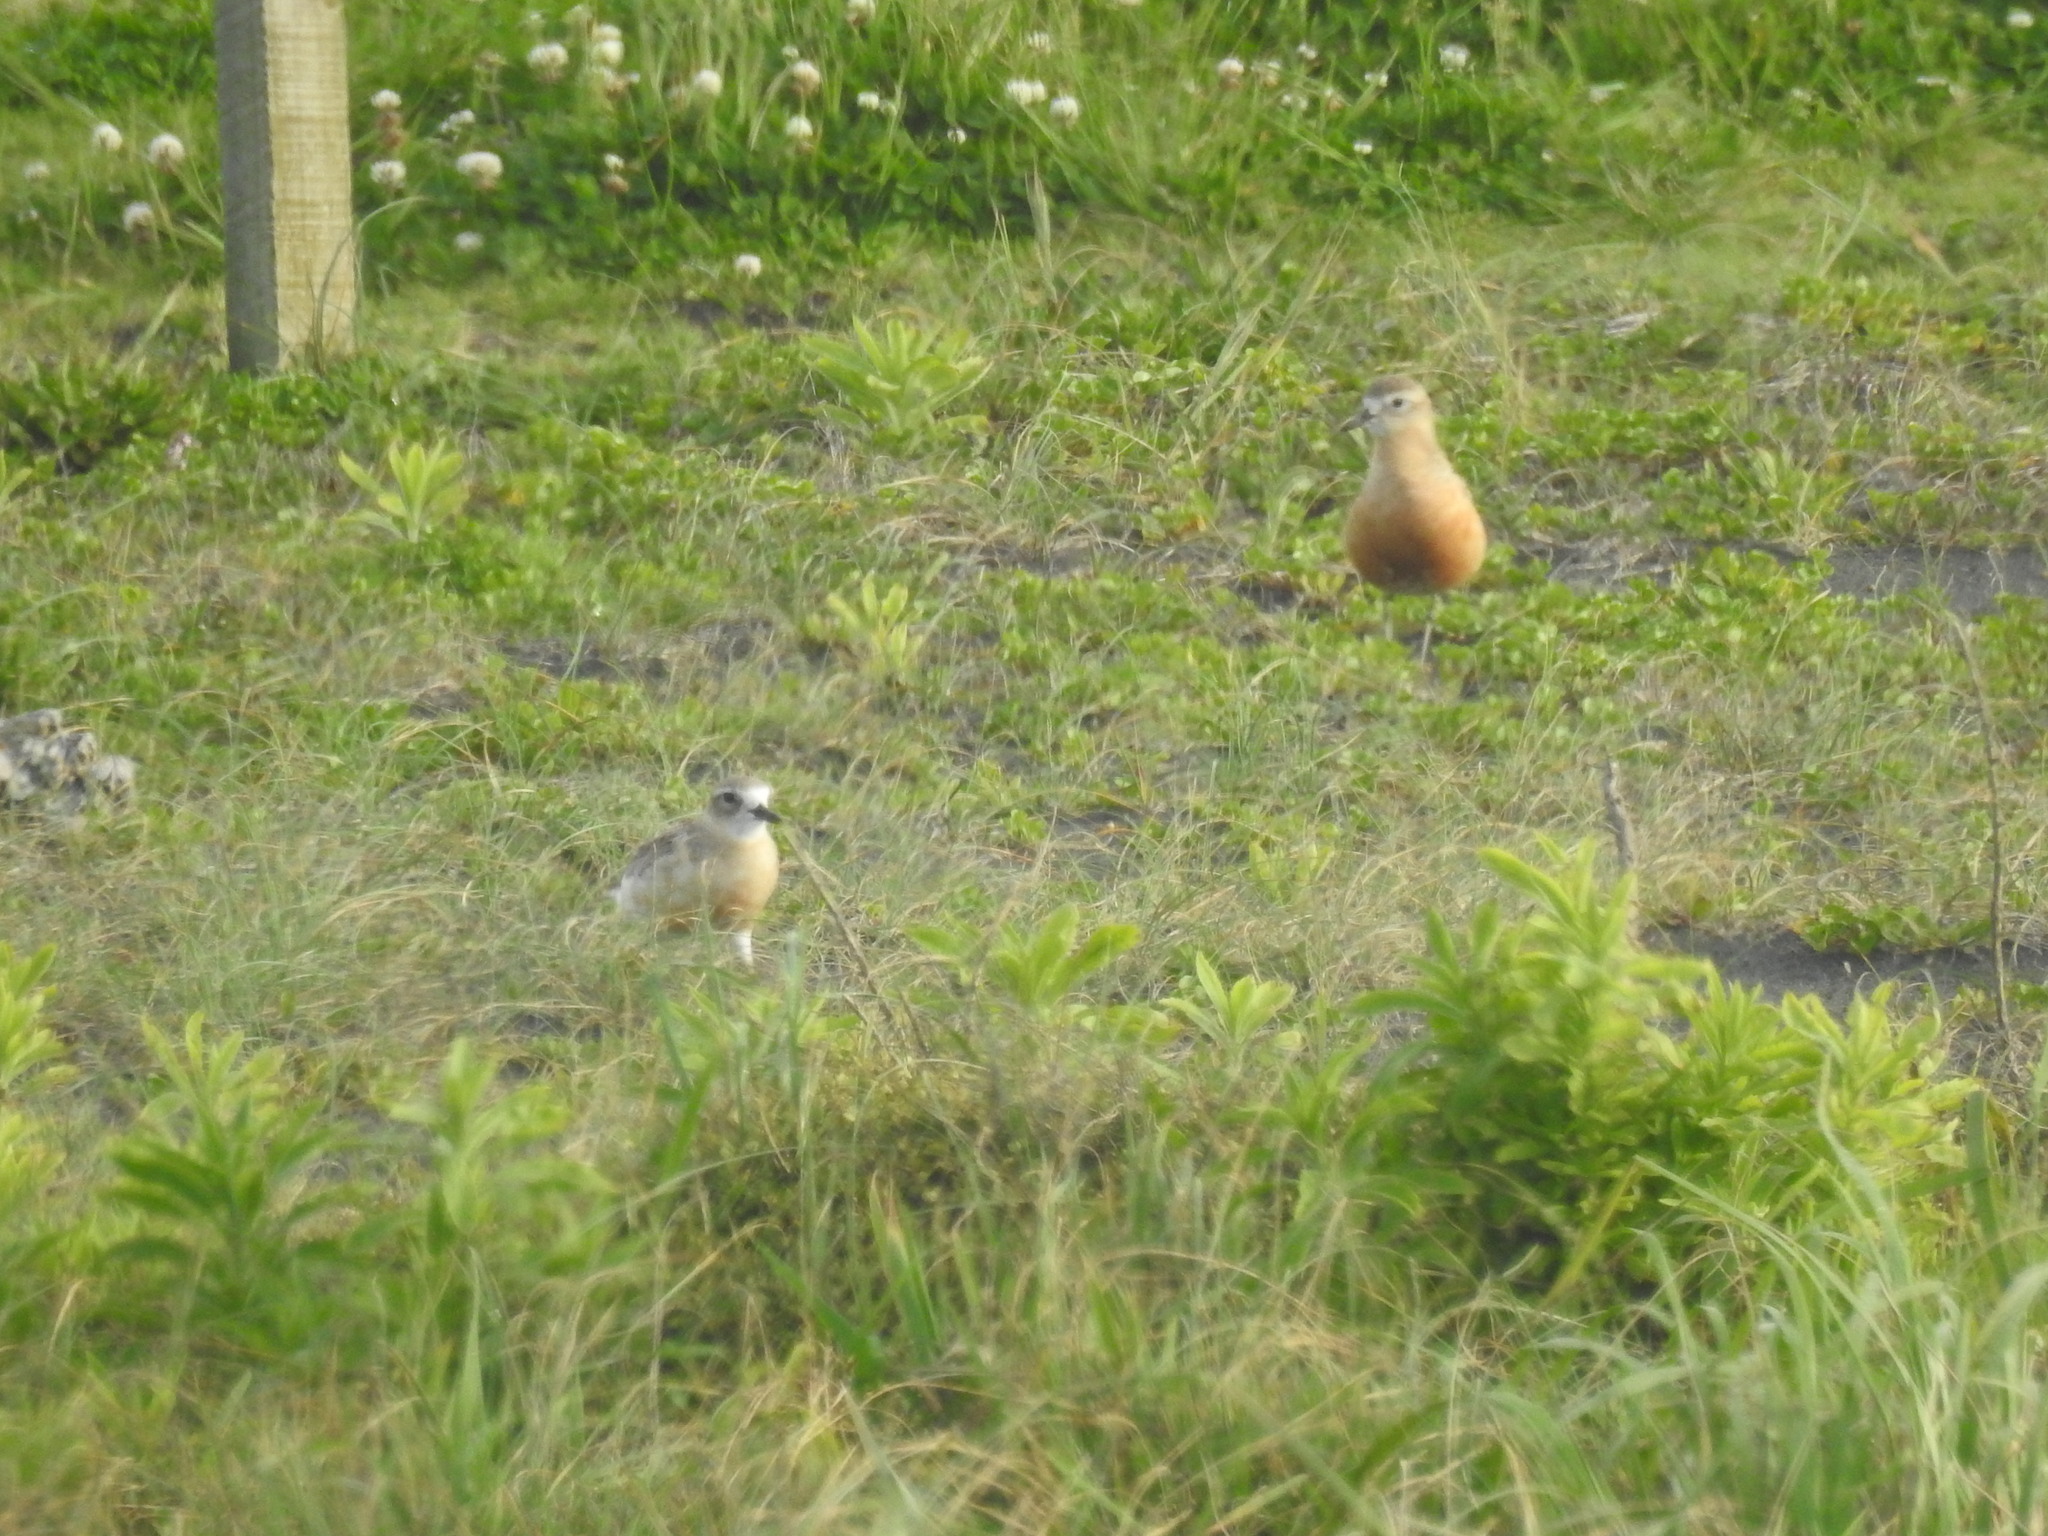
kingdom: Animalia
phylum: Chordata
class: Aves
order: Charadriiformes
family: Charadriidae
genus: Anarhynchus
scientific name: Anarhynchus
